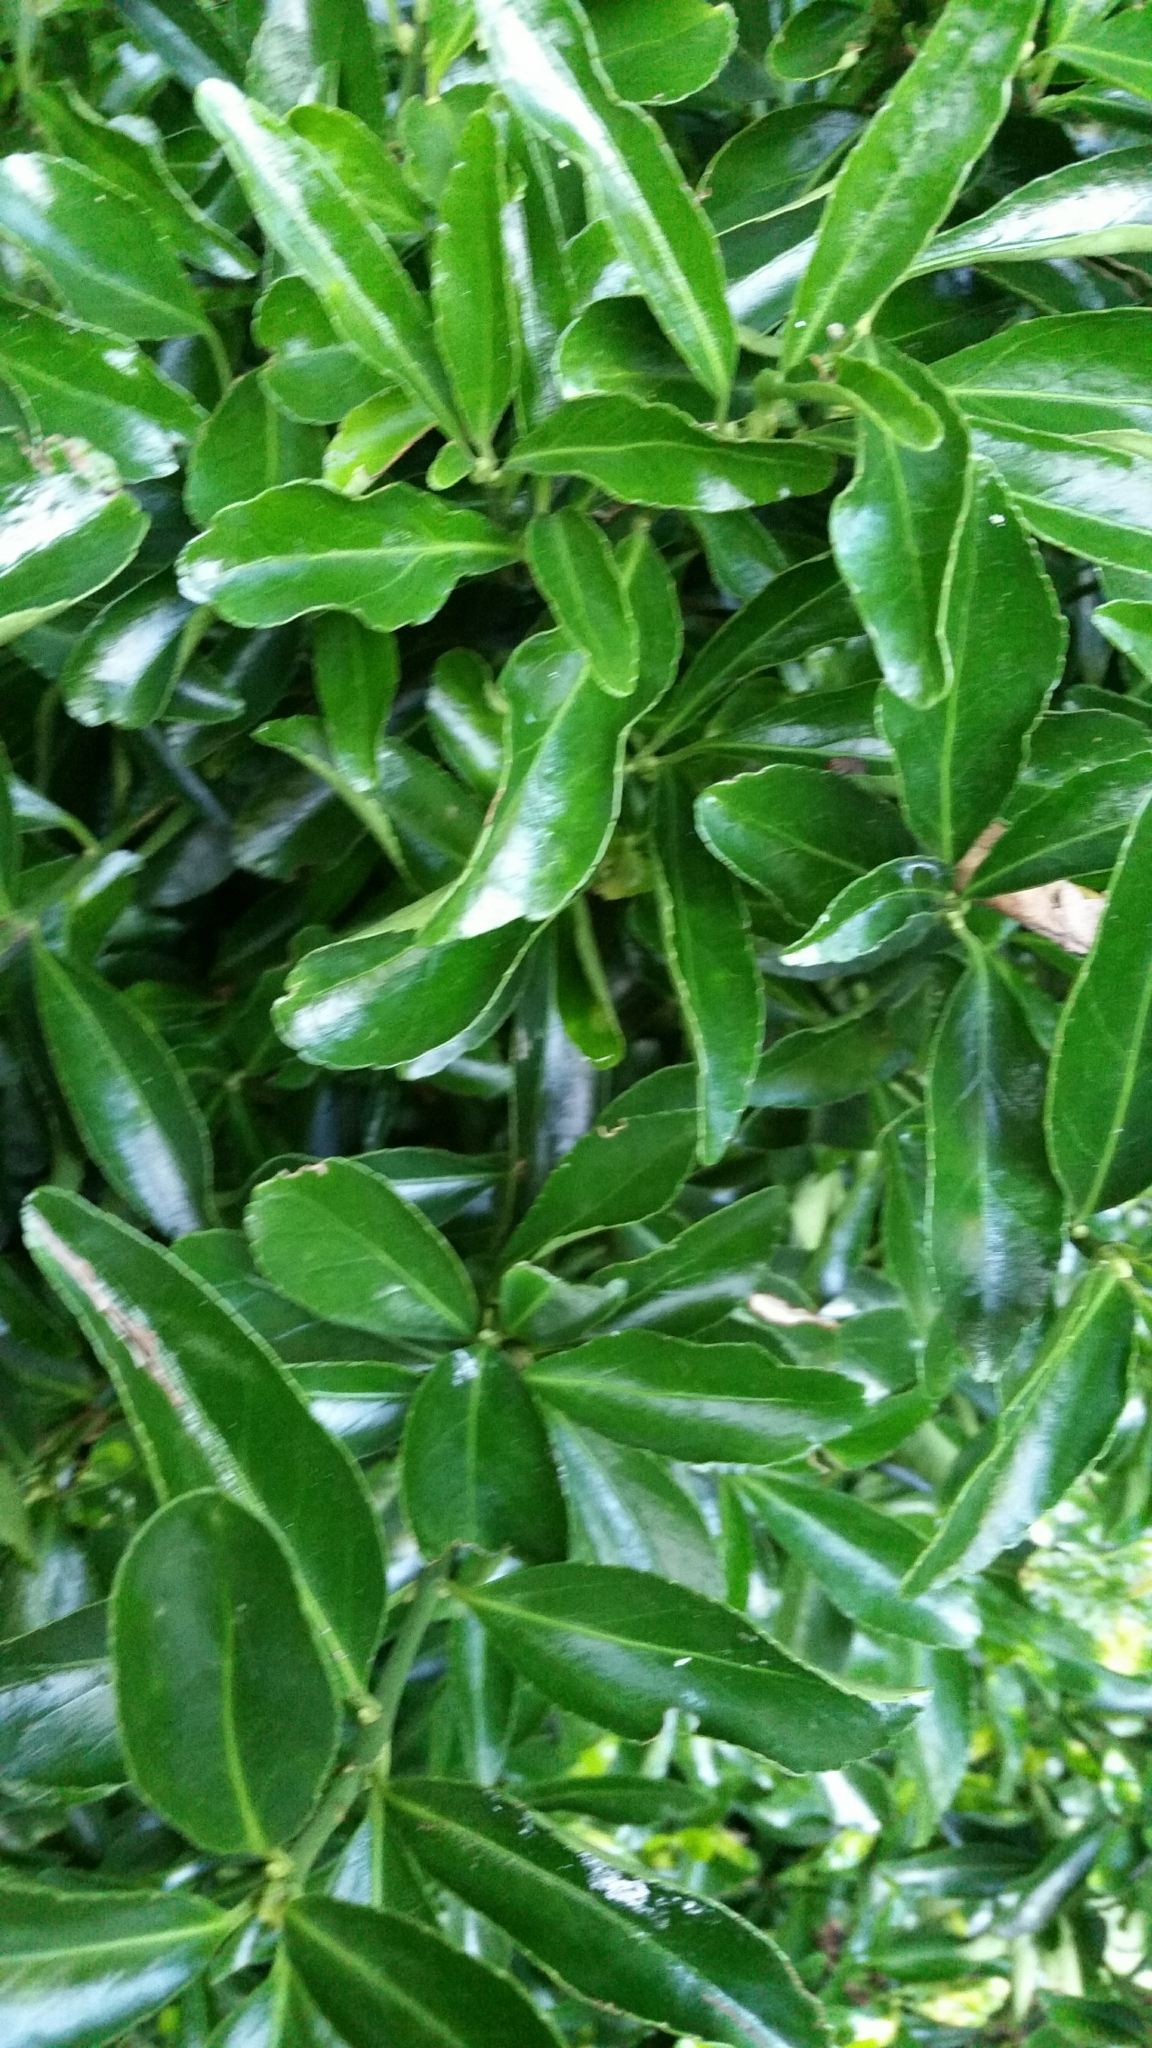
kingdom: Plantae
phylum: Tracheophyta
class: Magnoliopsida
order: Celastrales
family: Celastraceae
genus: Euonymus
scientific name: Euonymus japonicus
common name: Japanese spindletree
